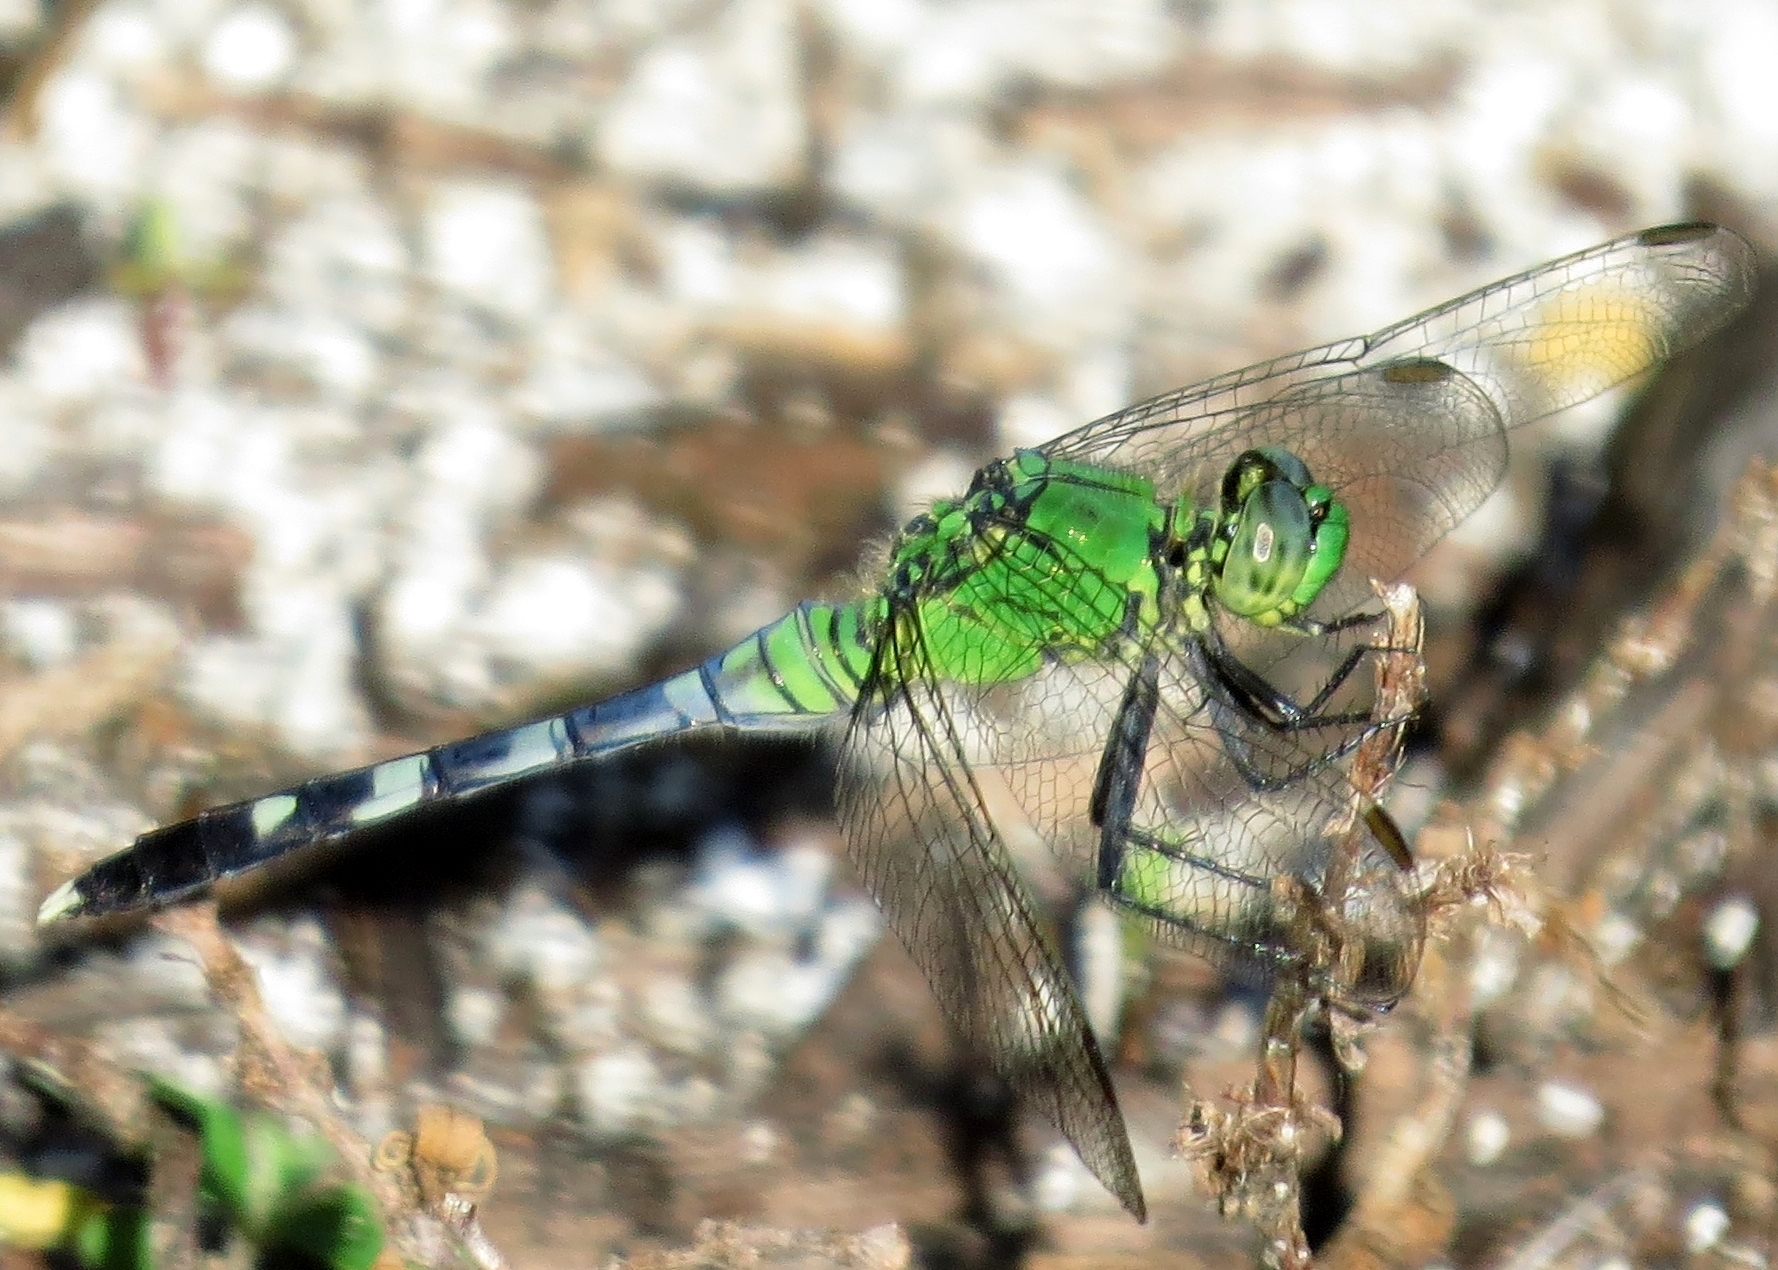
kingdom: Animalia
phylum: Arthropoda
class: Insecta
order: Odonata
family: Libellulidae
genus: Erythemis
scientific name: Erythemis simplicicollis
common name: Eastern pondhawk
